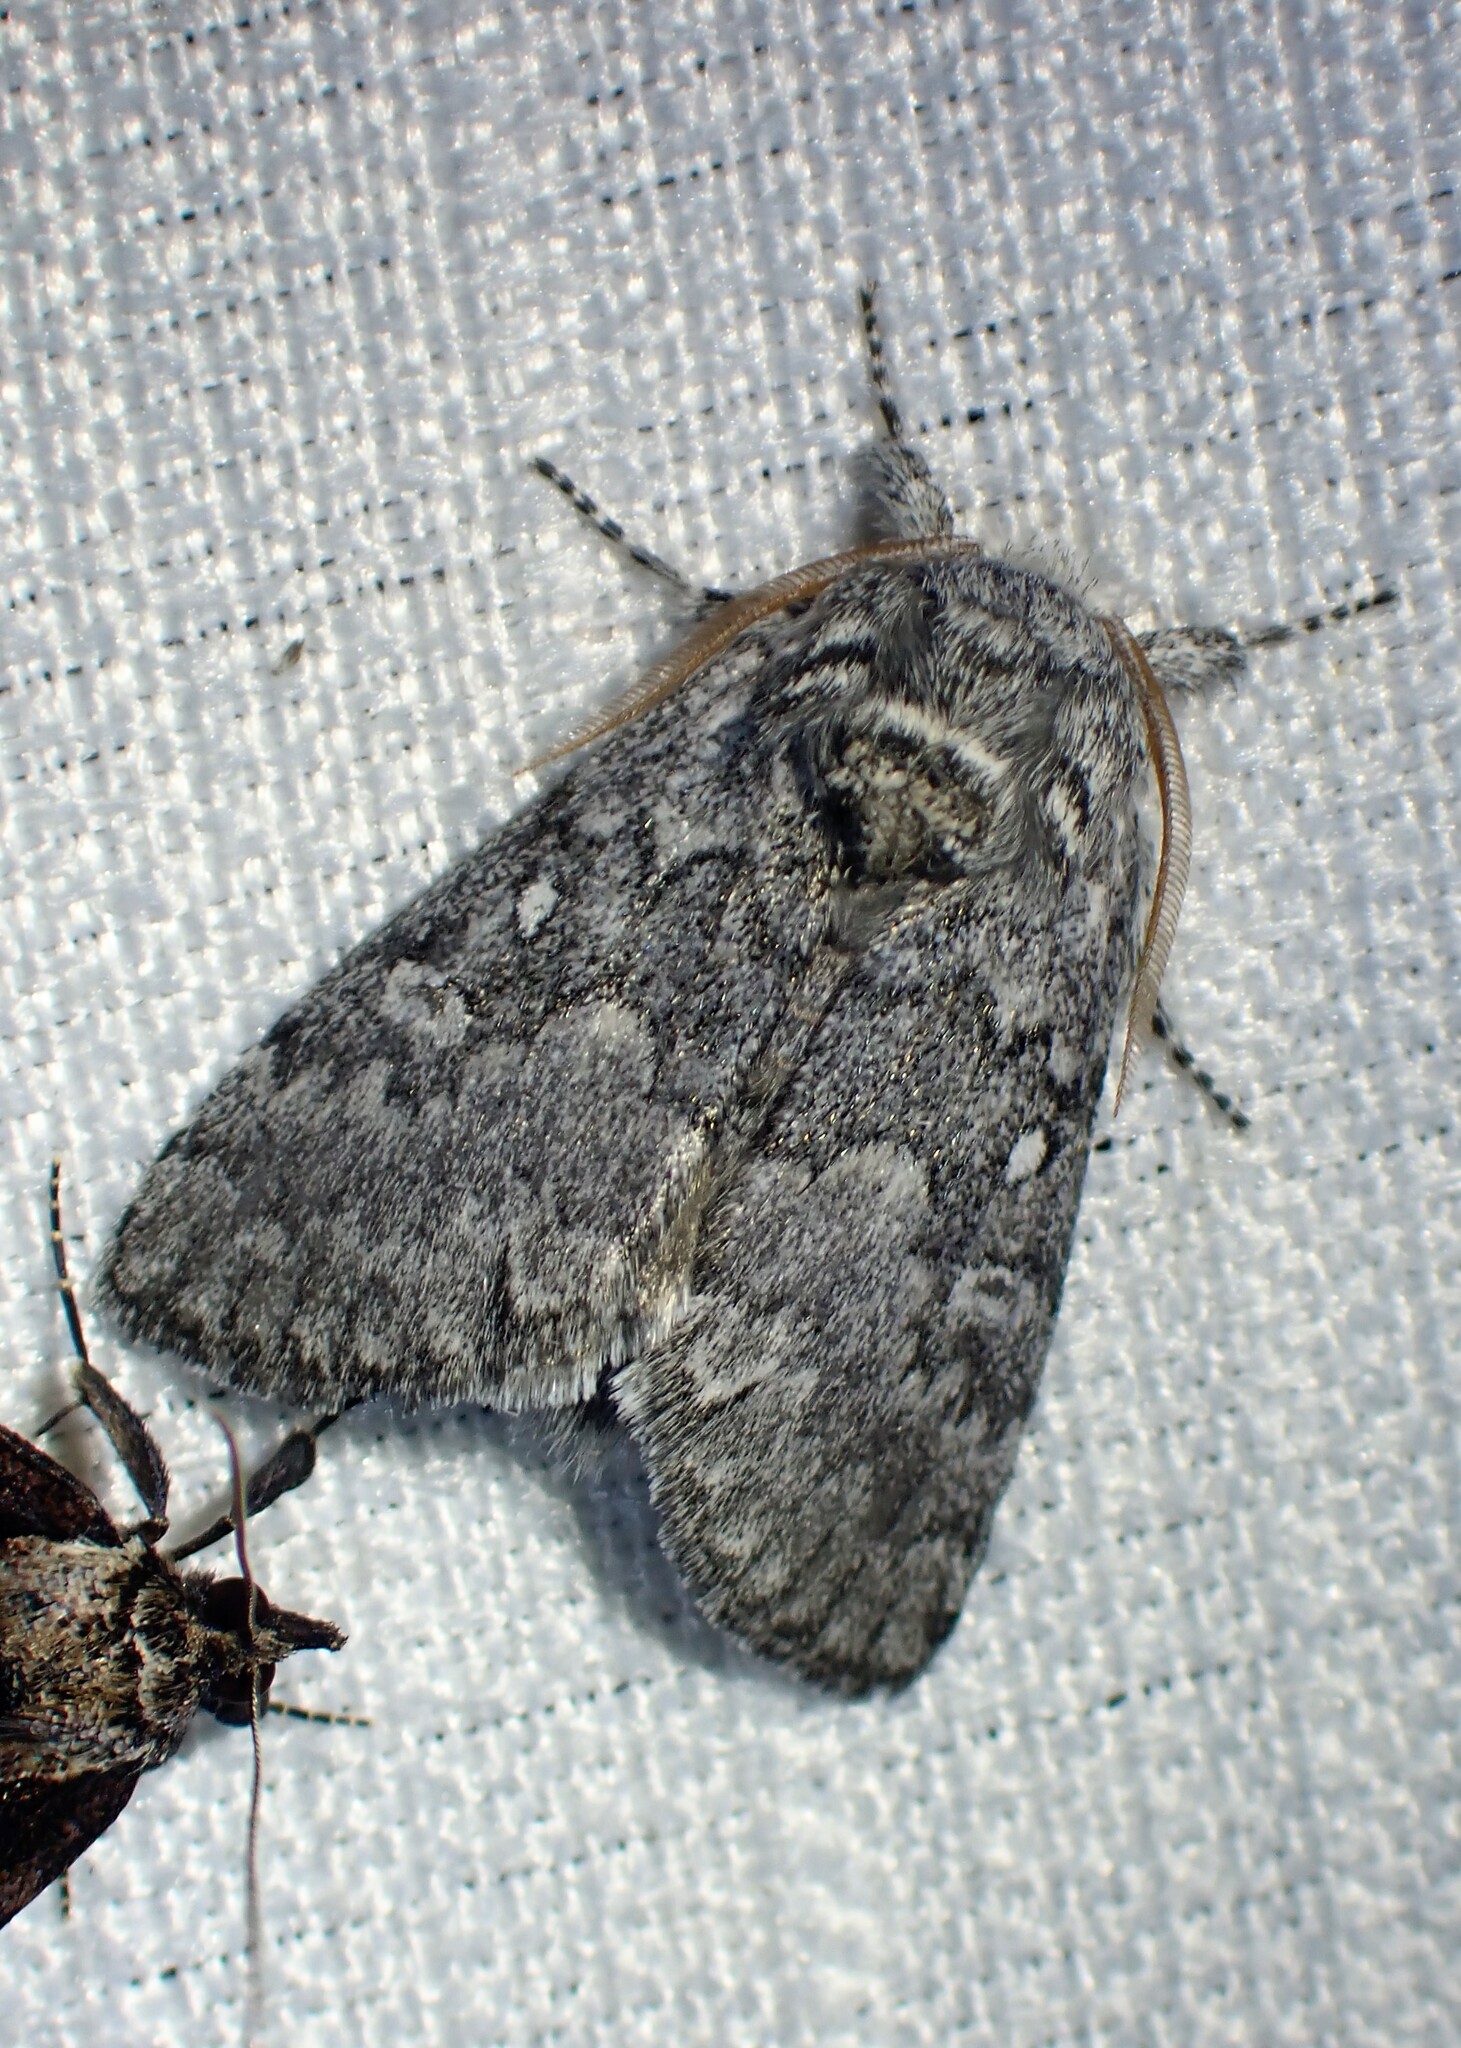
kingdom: Animalia
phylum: Arthropoda
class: Insecta
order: Lepidoptera
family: Noctuidae
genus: Colocasia
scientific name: Colocasia propinquilinea
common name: Close-banded demas
